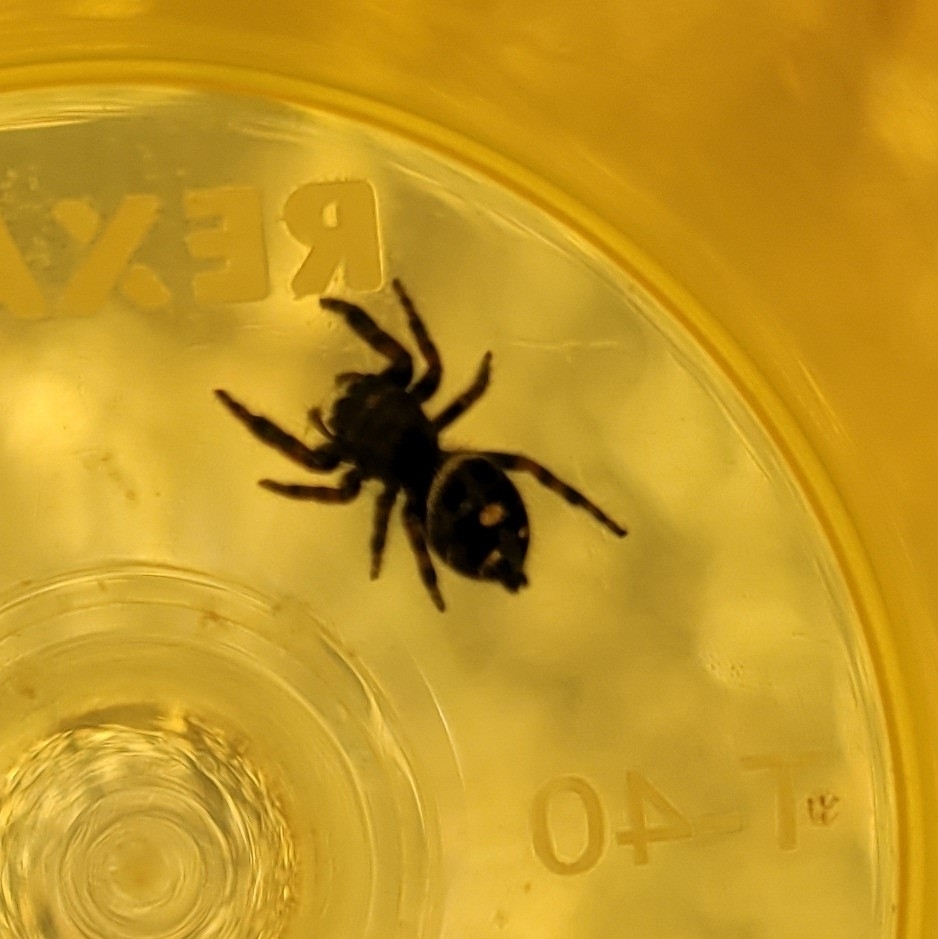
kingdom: Animalia
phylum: Arthropoda
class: Arachnida
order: Araneae
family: Salticidae
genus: Phidippus
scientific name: Phidippus audax
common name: Bold jumper
